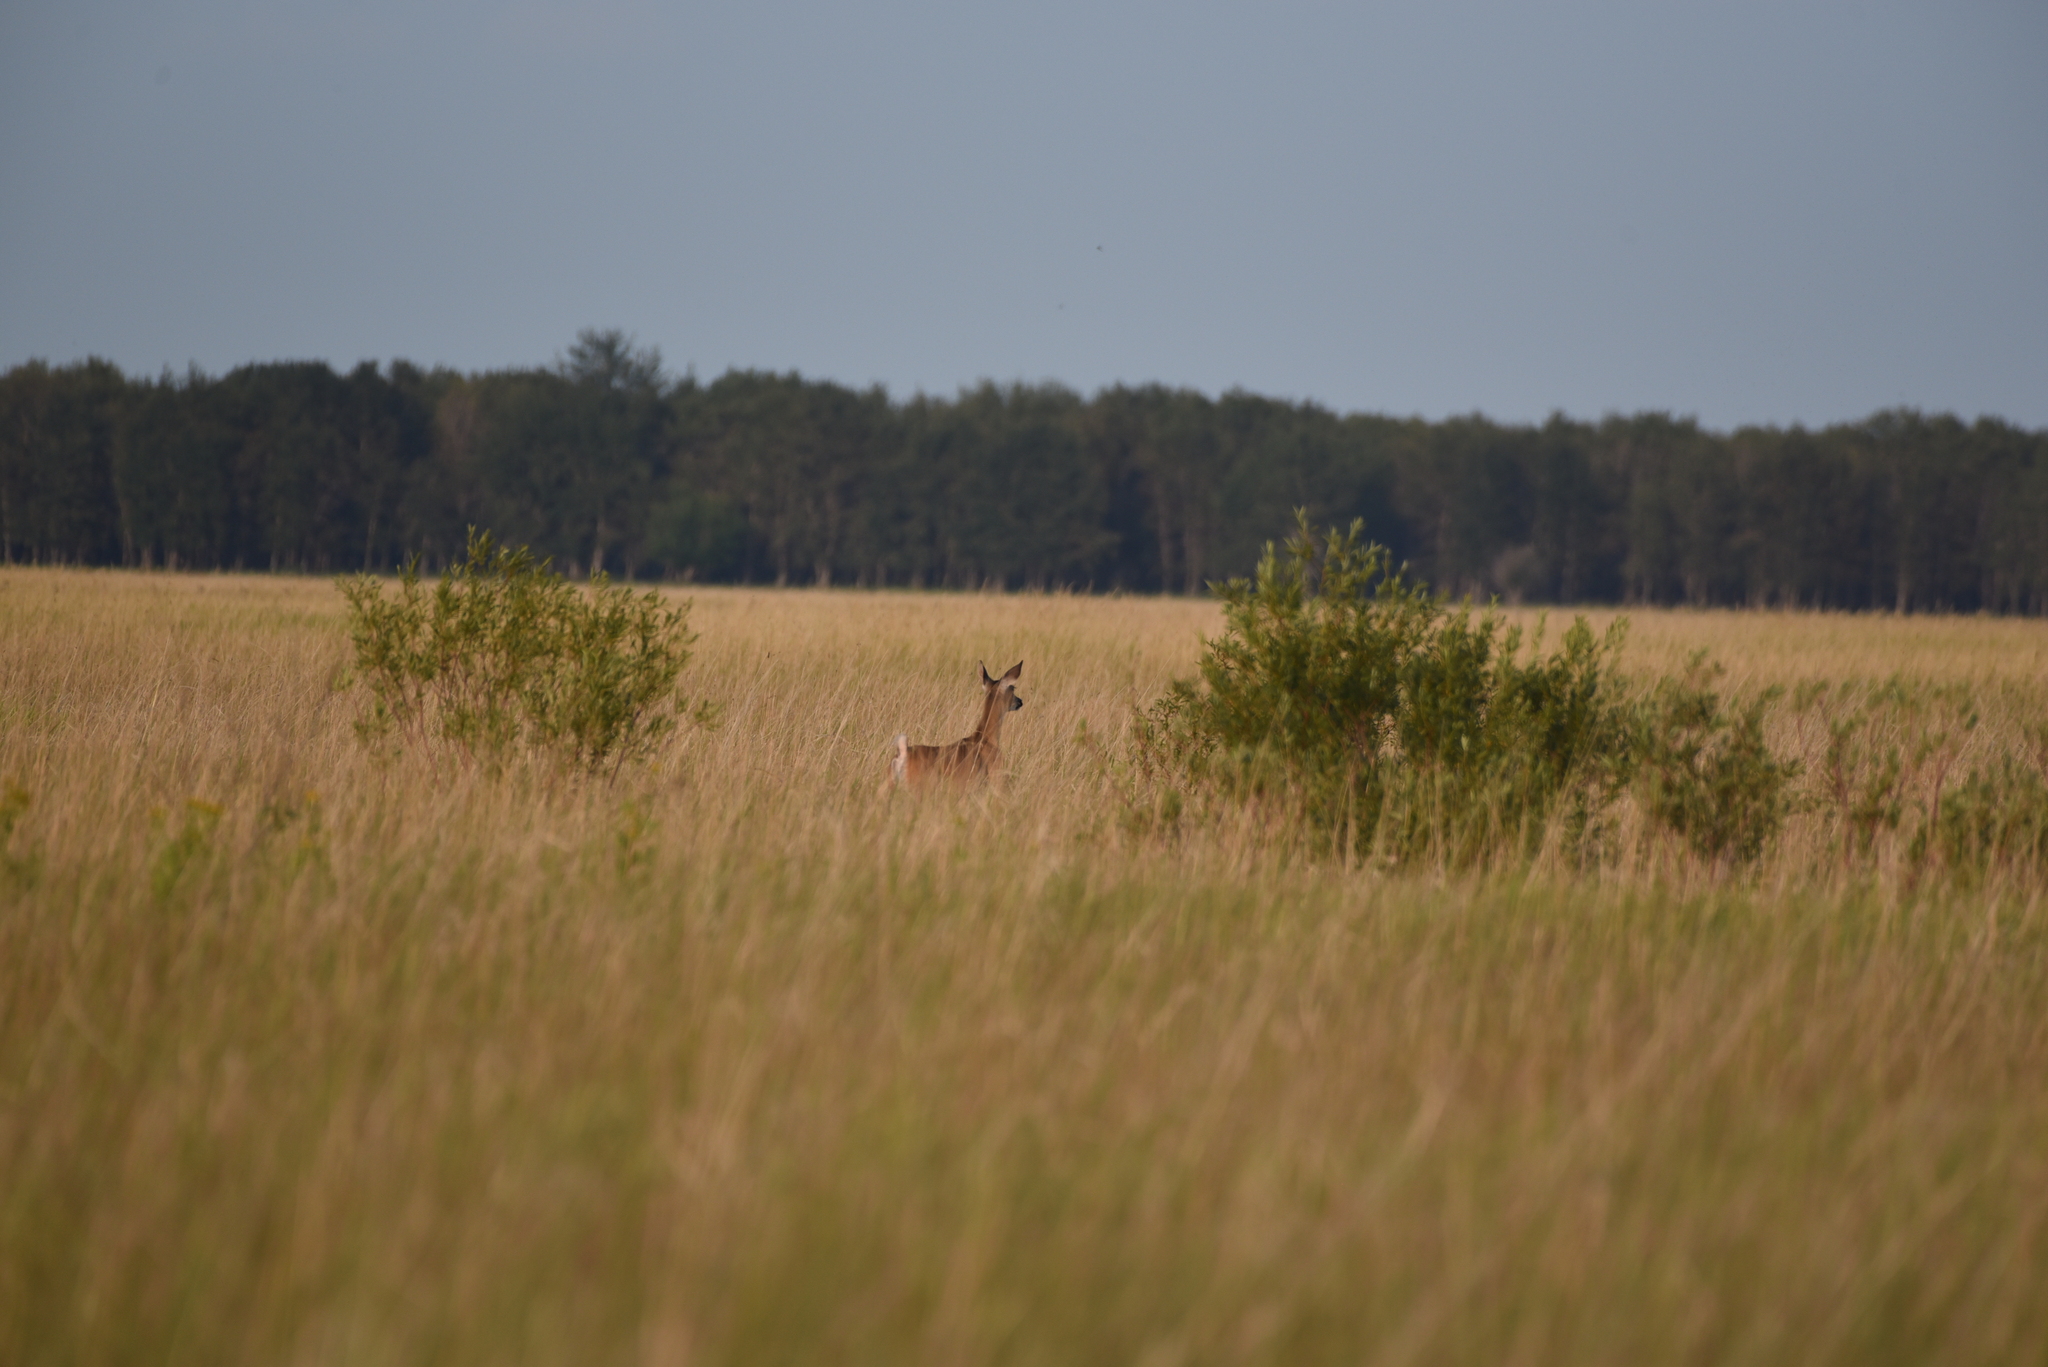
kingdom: Animalia
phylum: Chordata
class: Mammalia
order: Artiodactyla
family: Cervidae
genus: Odocoileus
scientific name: Odocoileus virginianus
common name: White-tailed deer
